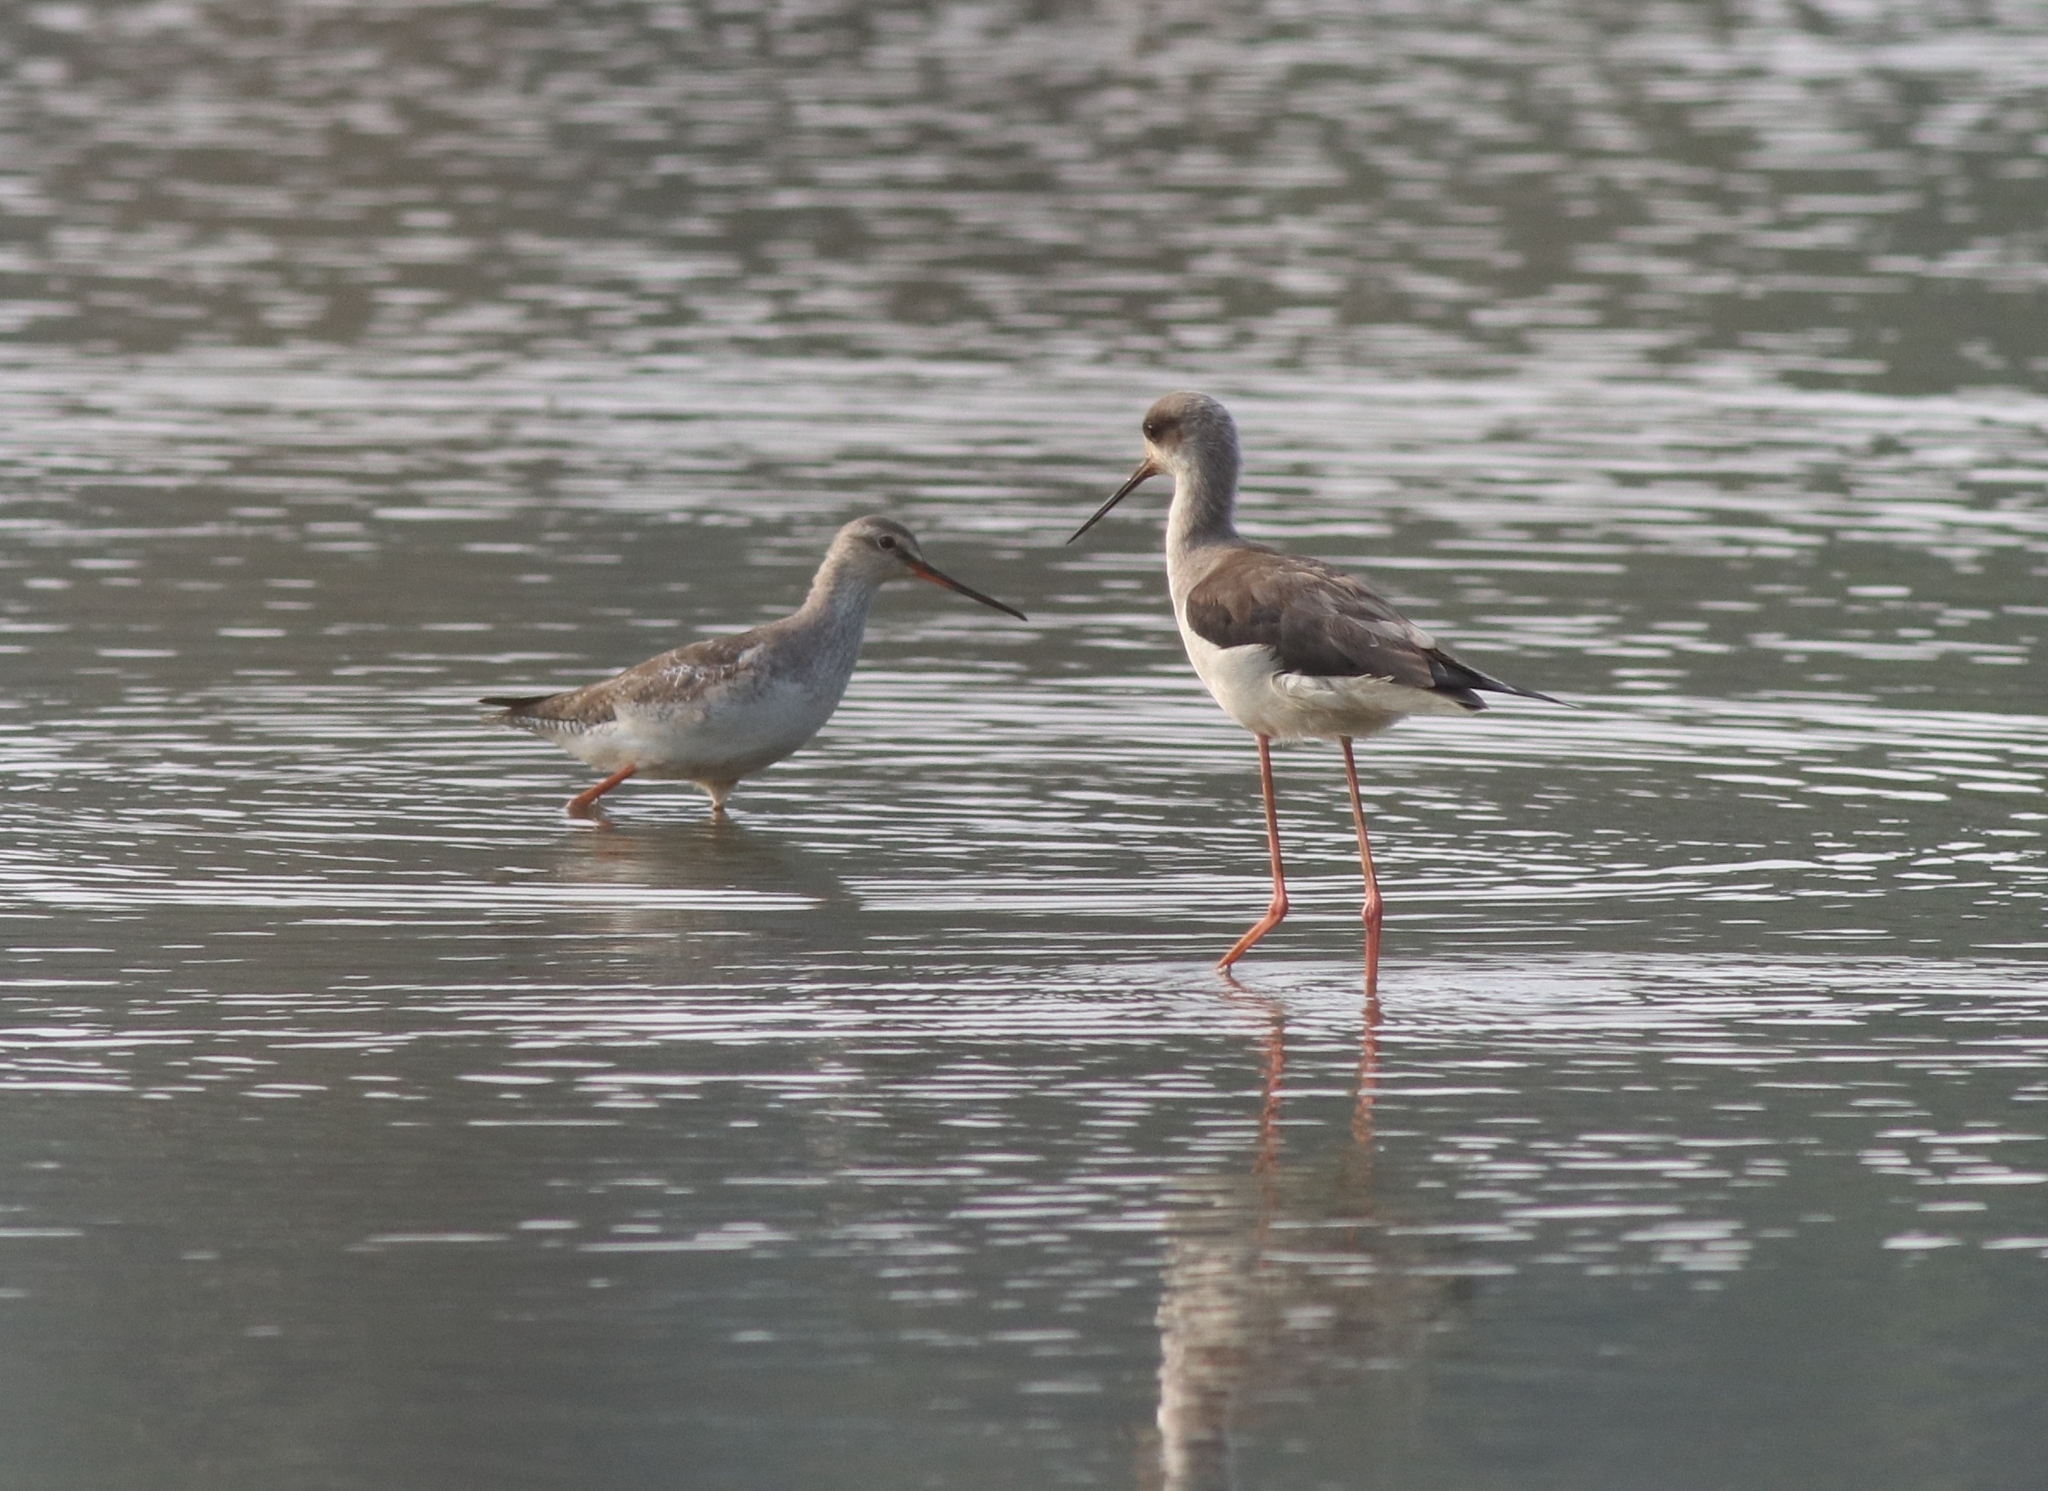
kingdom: Animalia
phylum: Chordata
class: Aves
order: Charadriiformes
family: Recurvirostridae
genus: Himantopus
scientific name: Himantopus himantopus
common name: Black-winged stilt
